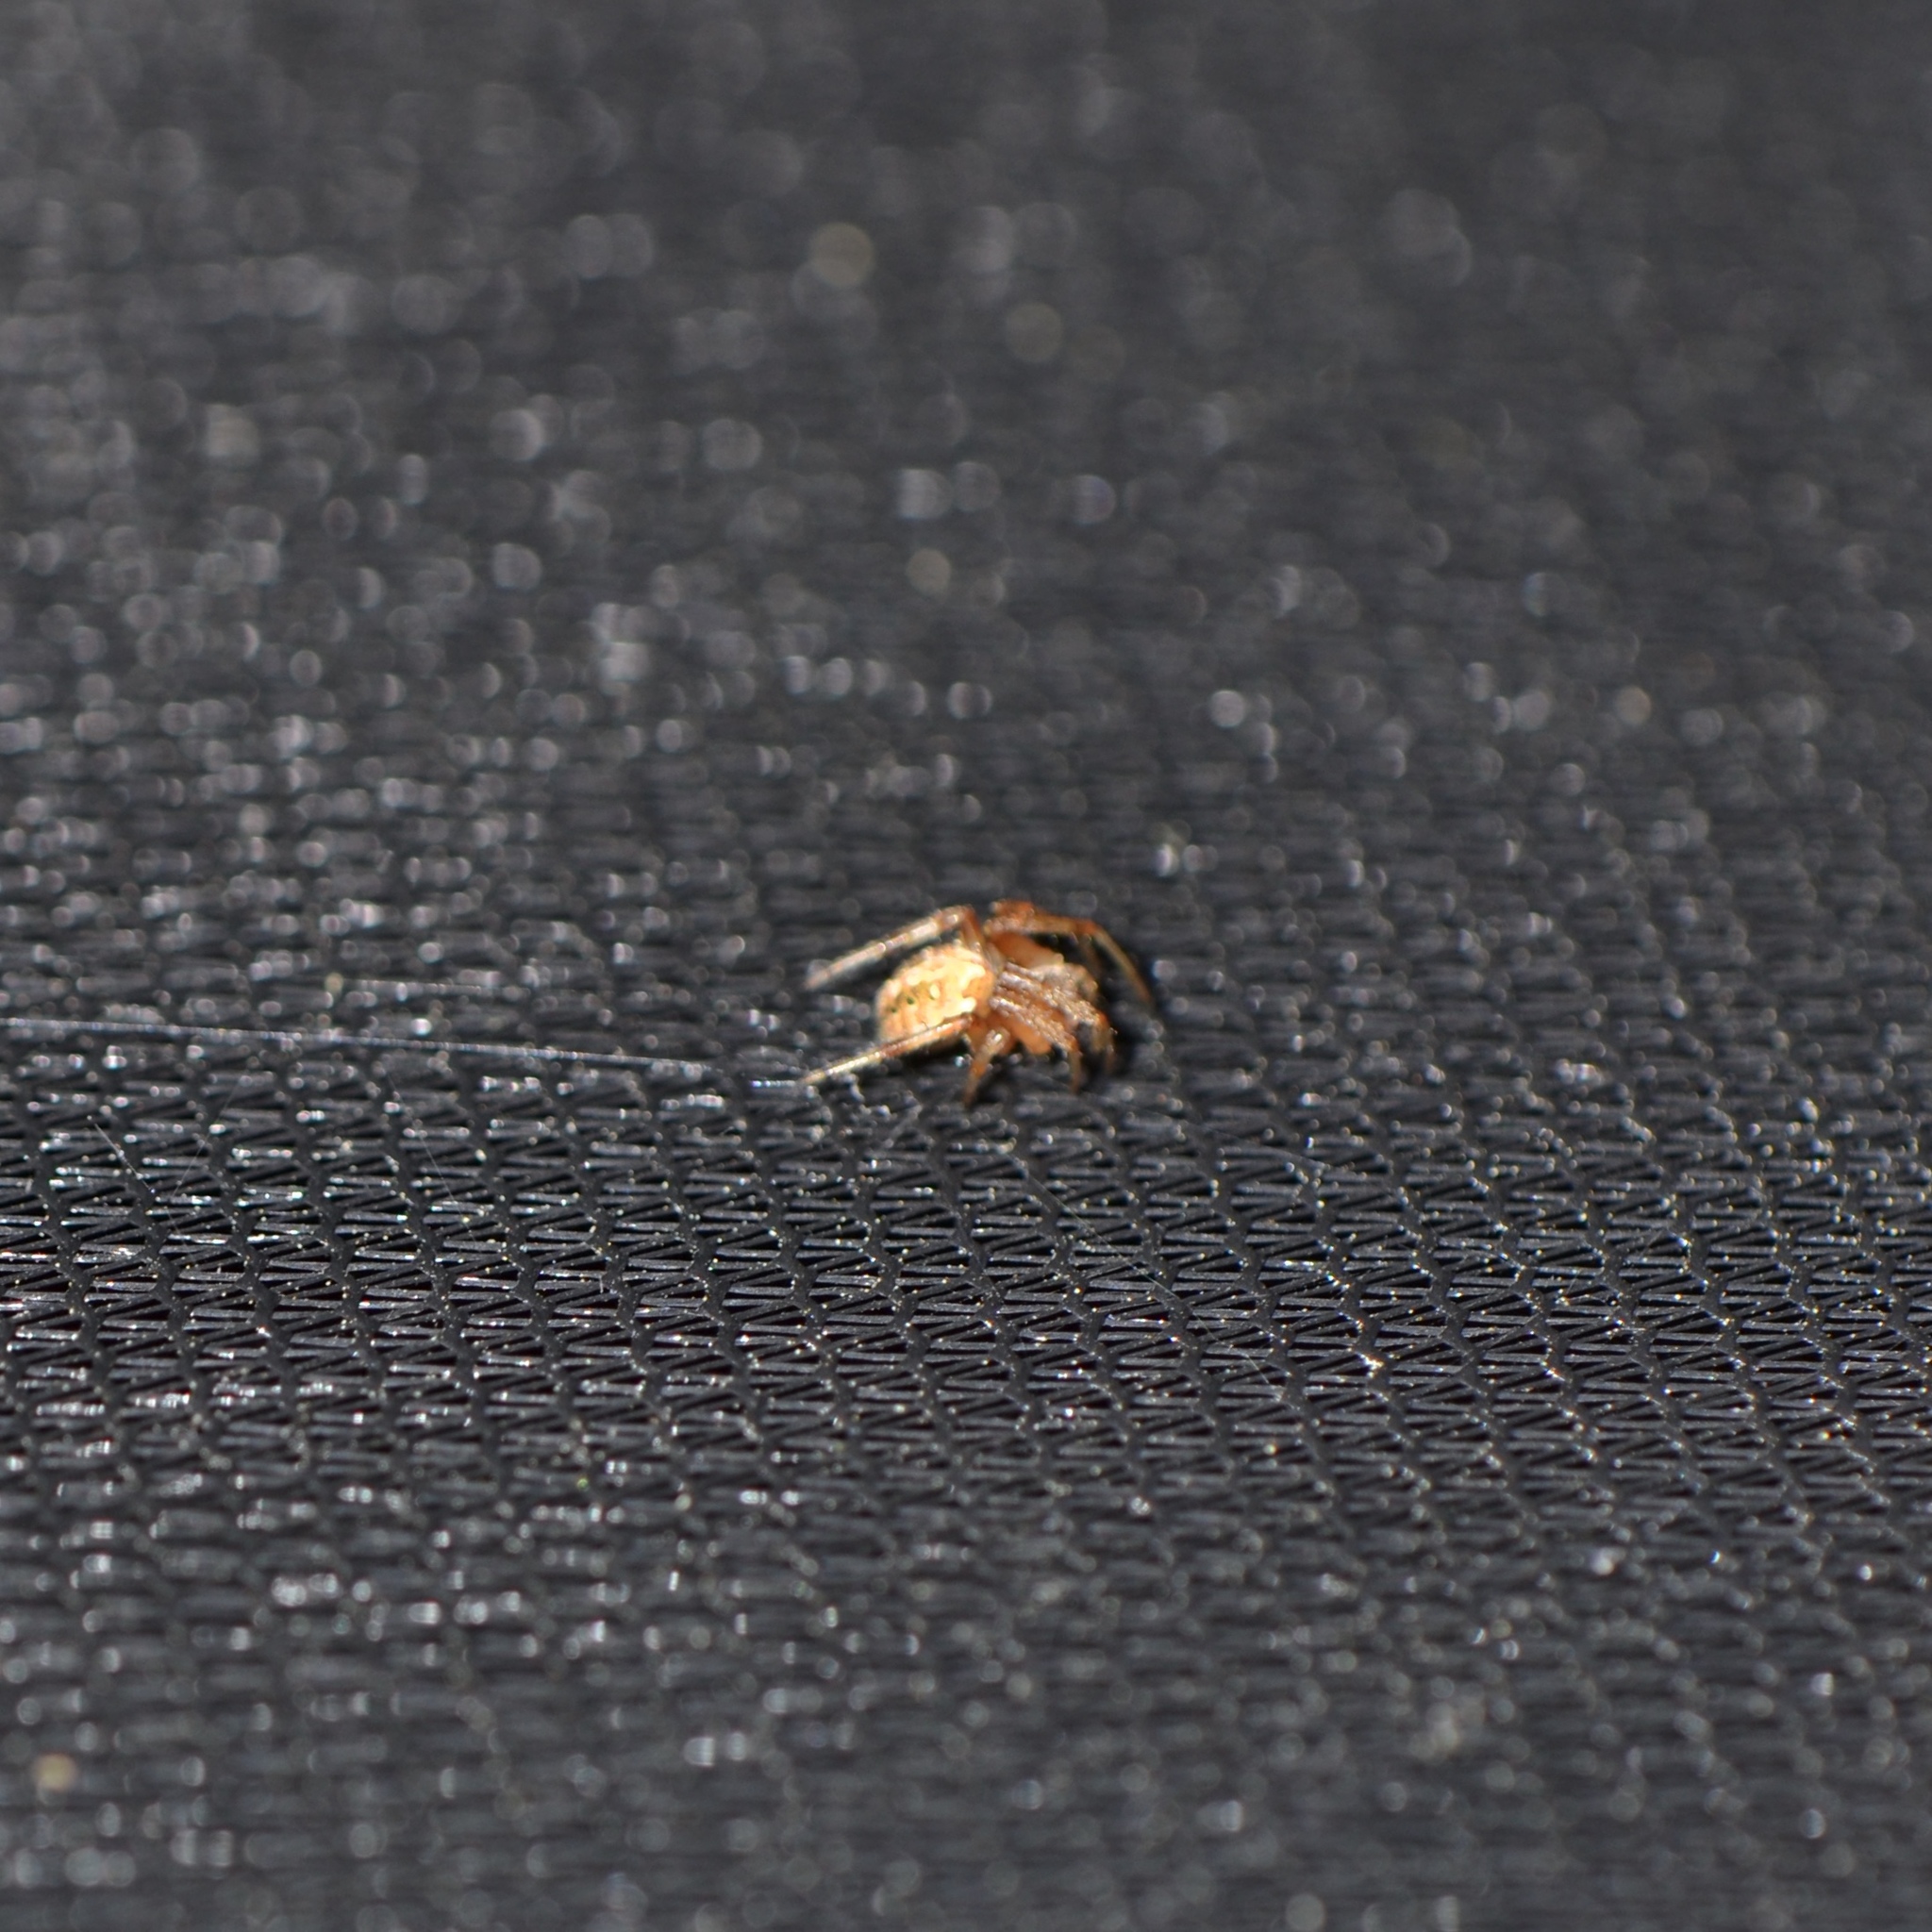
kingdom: Animalia
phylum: Arthropoda
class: Arachnida
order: Araneae
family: Araneidae
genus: Neoscona
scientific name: Neoscona arabesca
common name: Orb weavers
